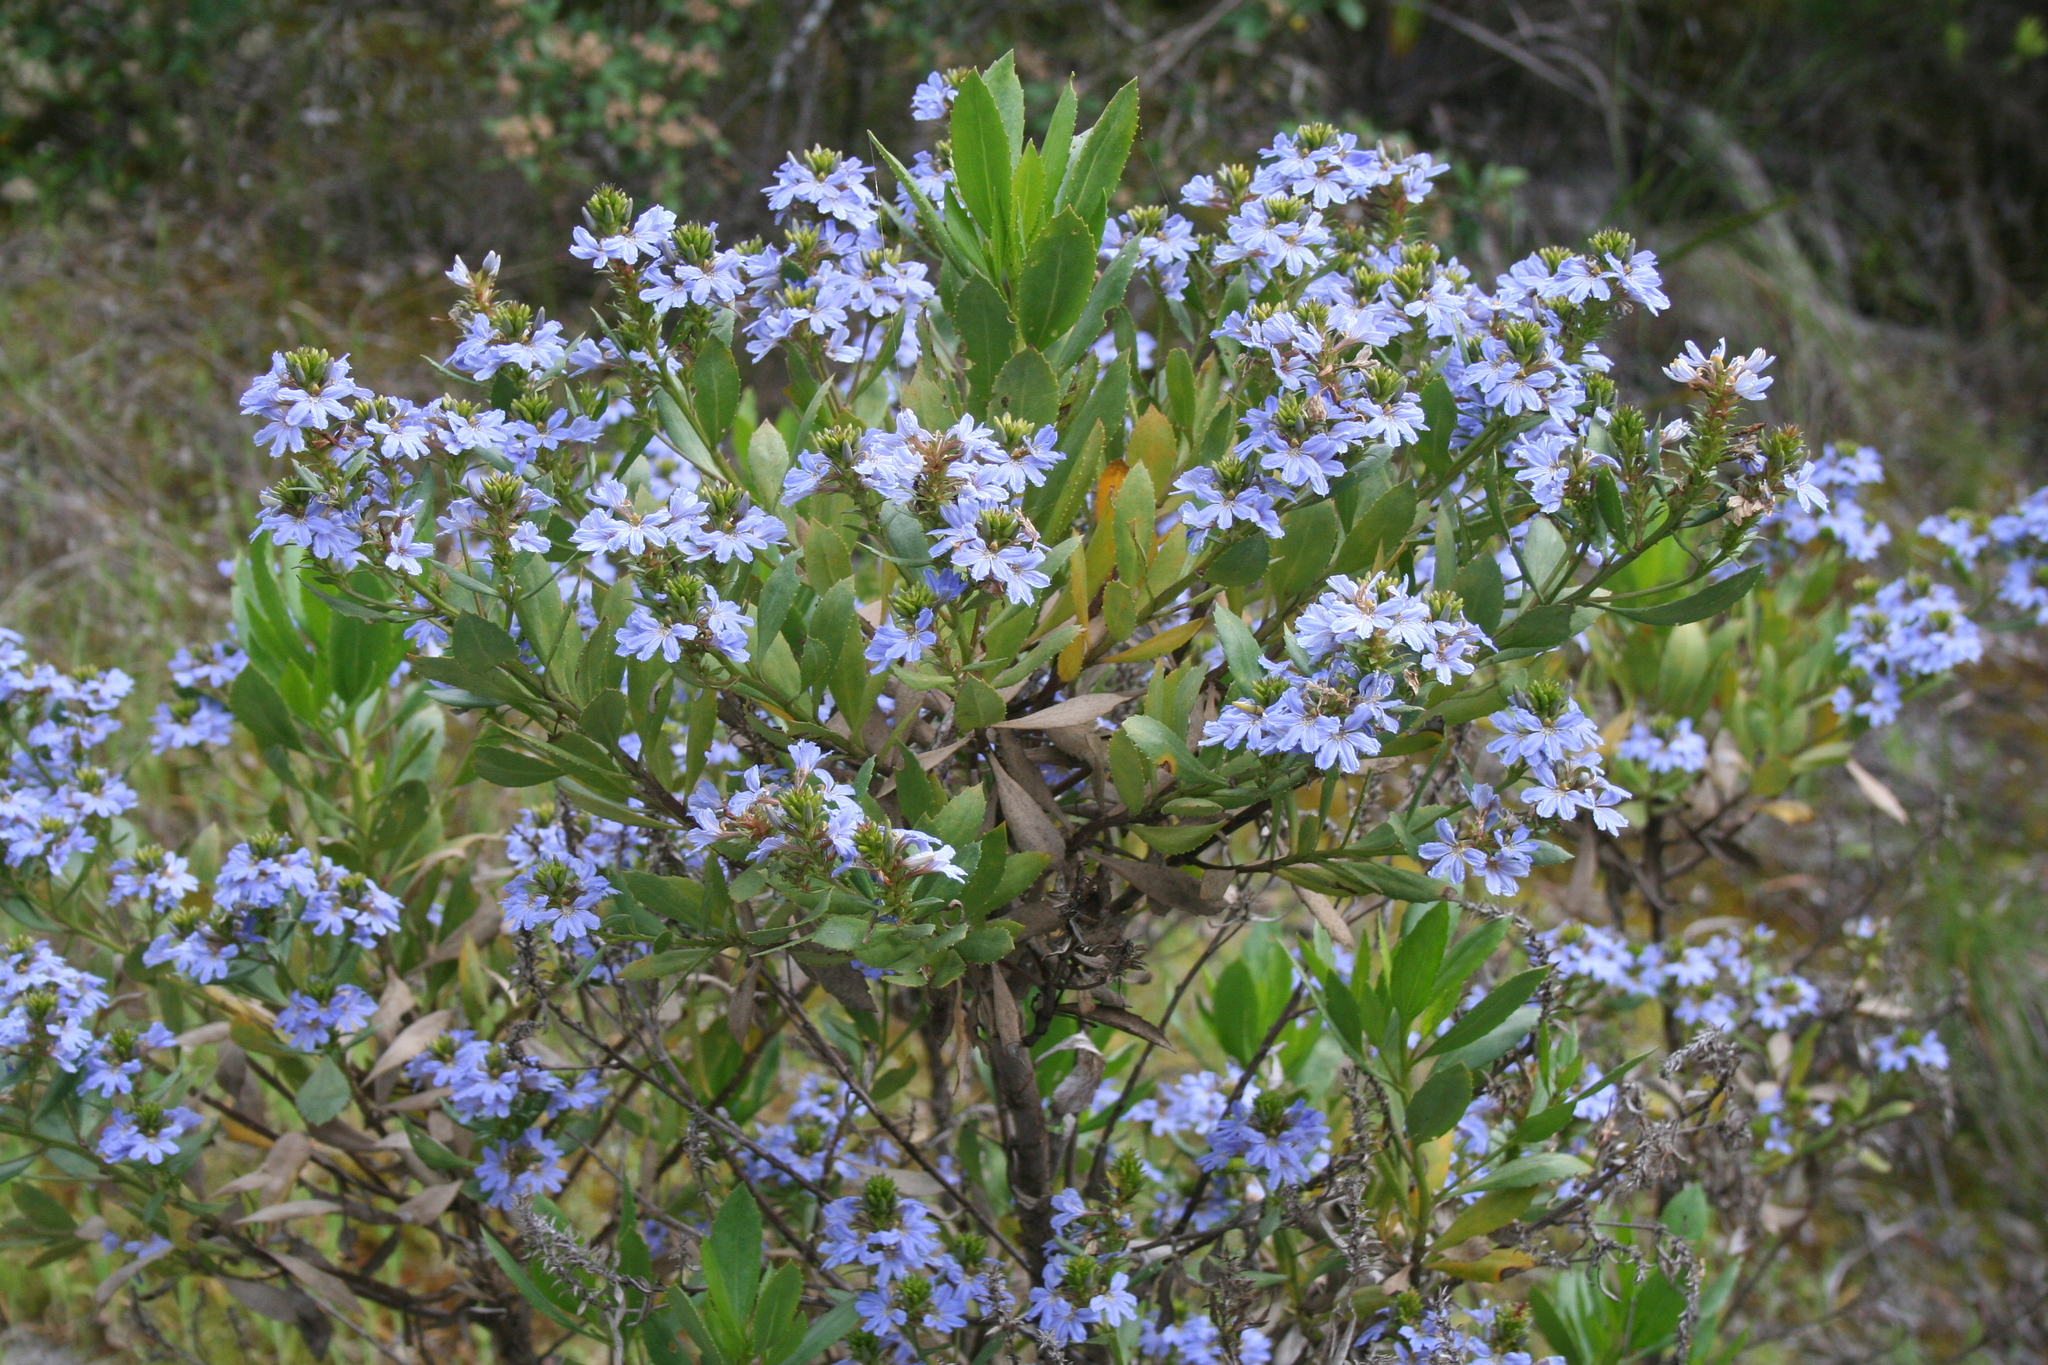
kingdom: Plantae
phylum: Tracheophyta
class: Magnoliopsida
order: Asterales
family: Goodeniaceae
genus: Scaevola
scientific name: Scaevola nitida
